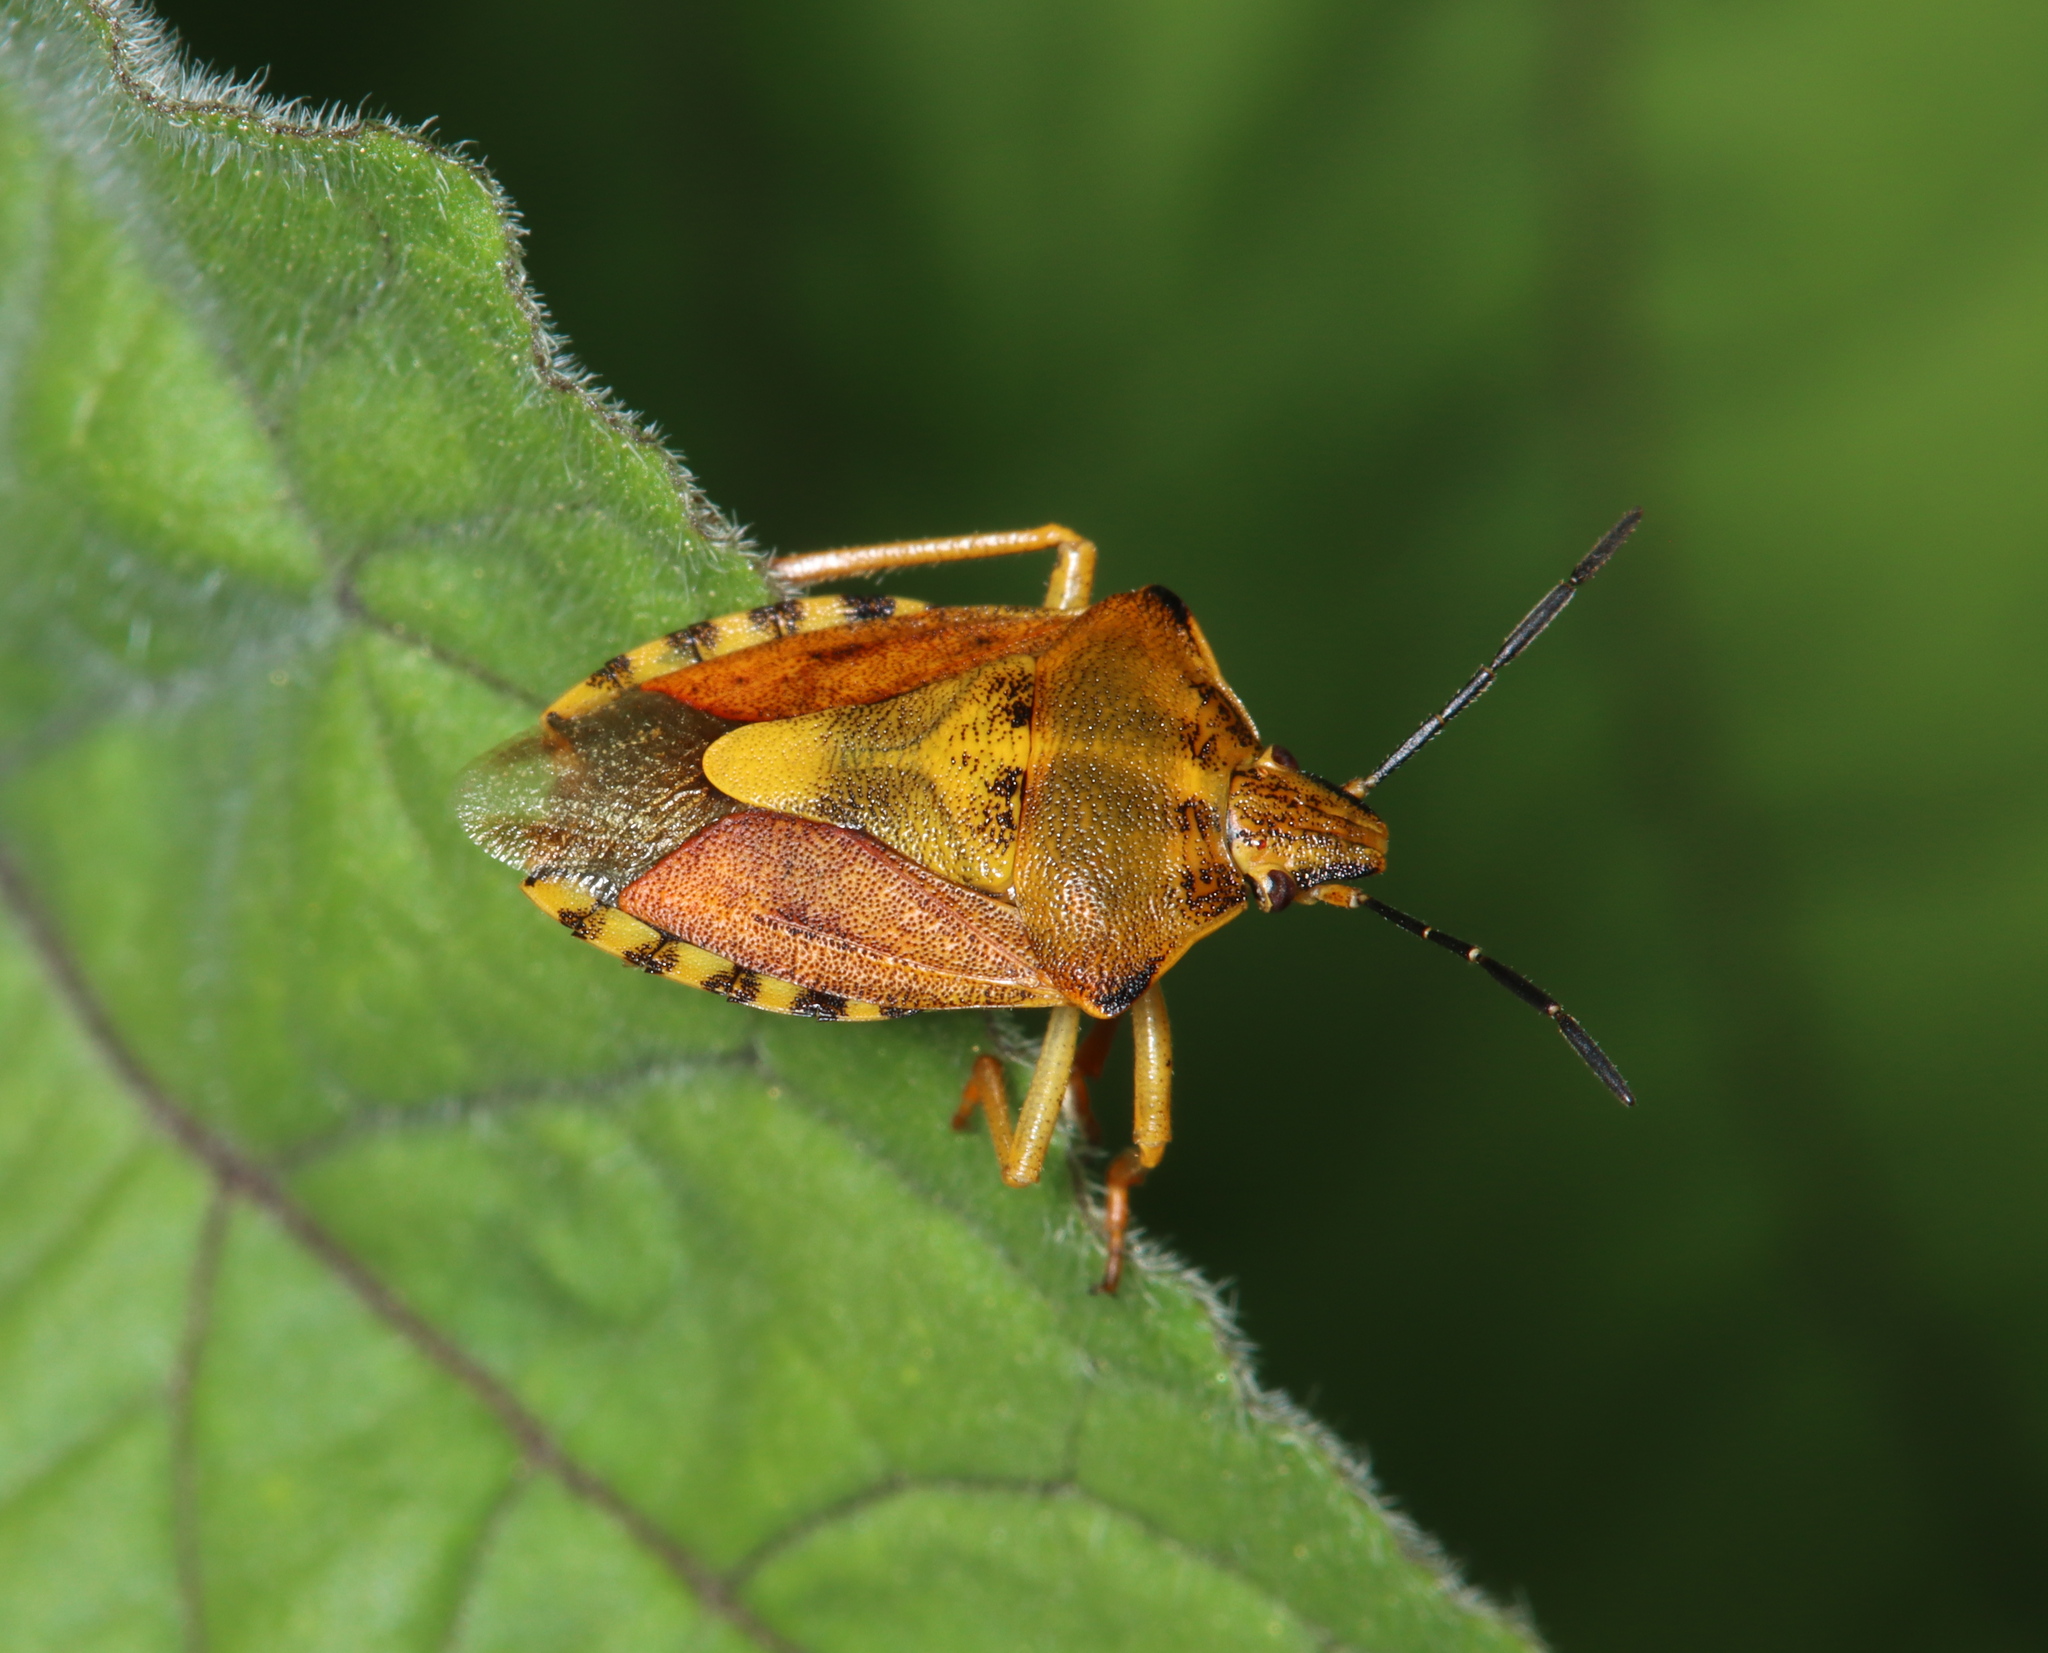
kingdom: Animalia
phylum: Arthropoda
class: Insecta
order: Hemiptera
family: Pentatomidae
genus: Carpocoris
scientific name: Carpocoris purpureipennis
